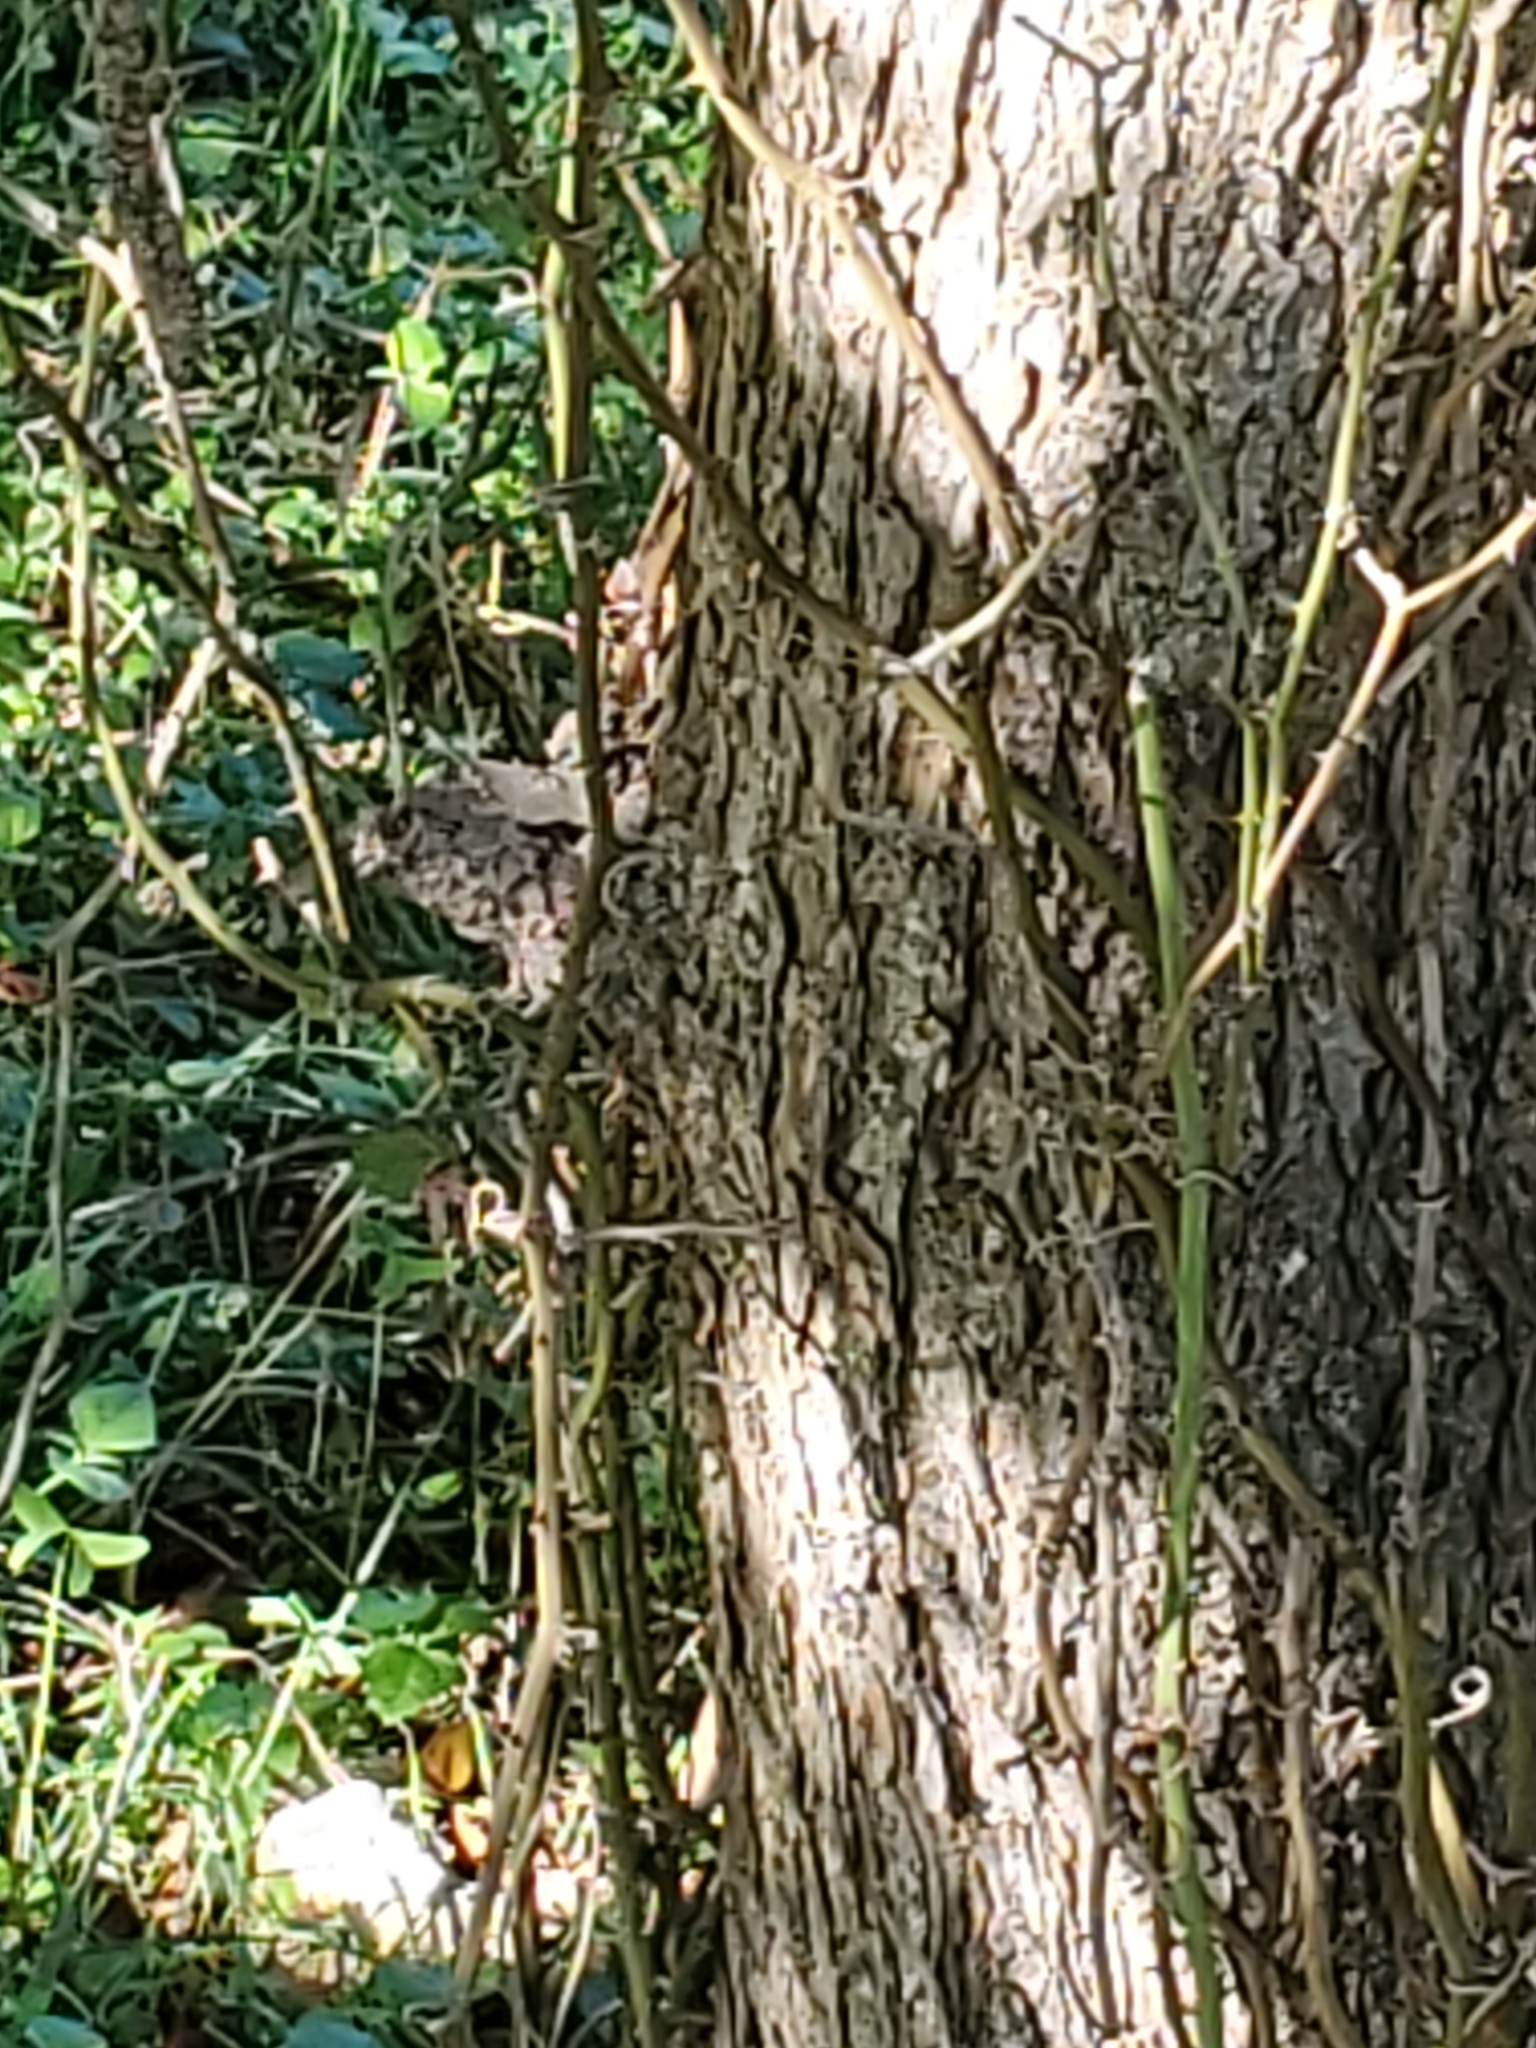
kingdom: Plantae
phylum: Tracheophyta
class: Magnoliopsida
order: Rosales
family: Ulmaceae
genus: Ulmus
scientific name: Ulmus crassifolia
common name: Basket elm
